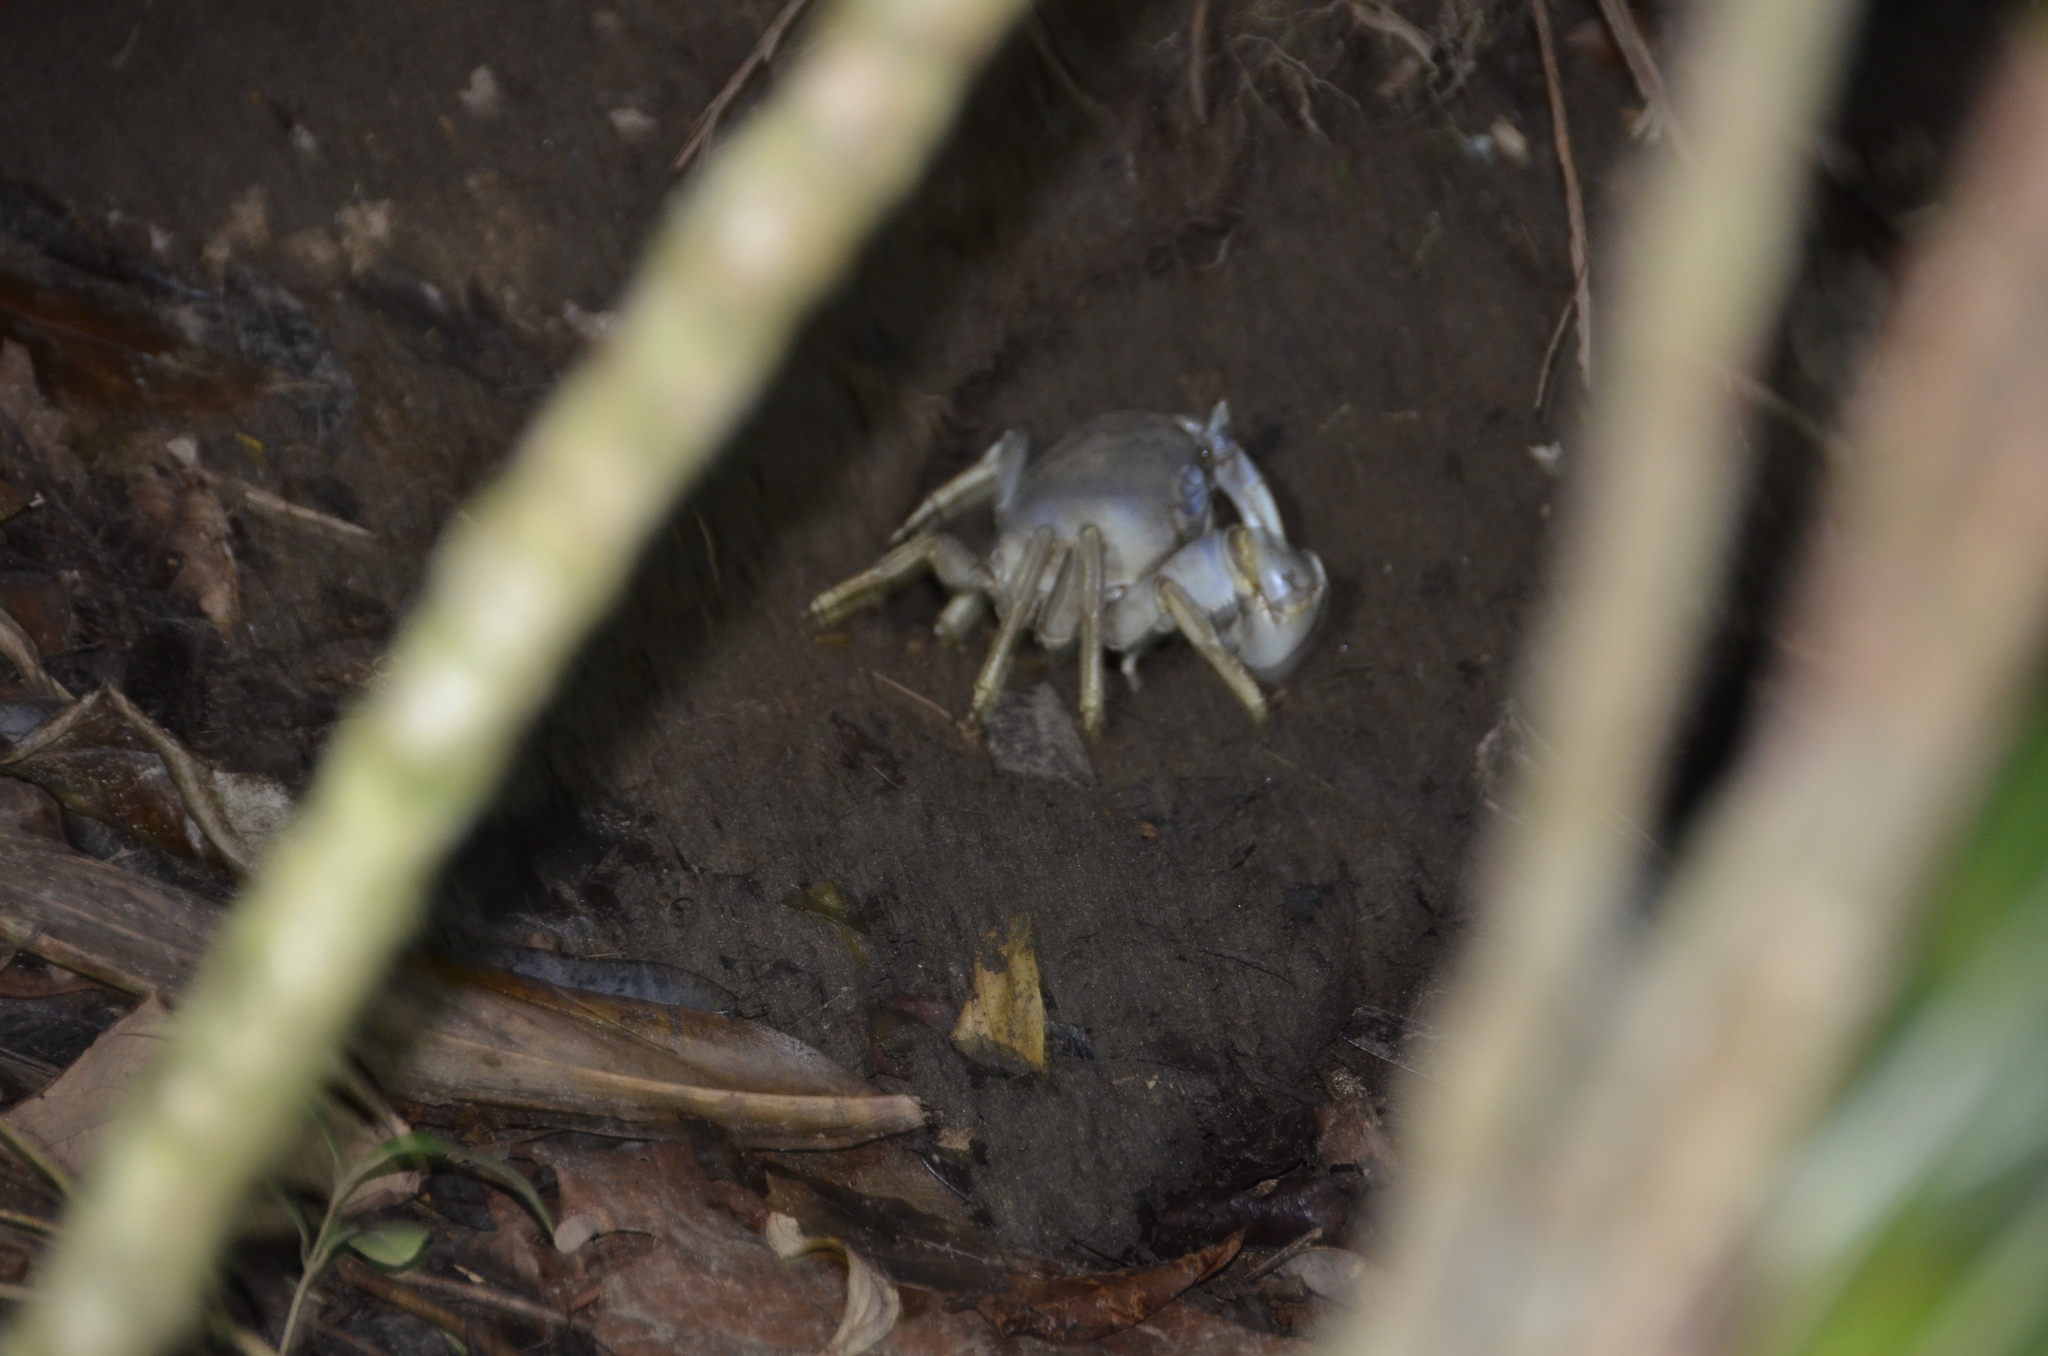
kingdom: Animalia
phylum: Arthropoda
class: Malacostraca
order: Decapoda
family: Gecarcinidae
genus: Cardisoma
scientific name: Cardisoma guanhumi
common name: Great land crab
